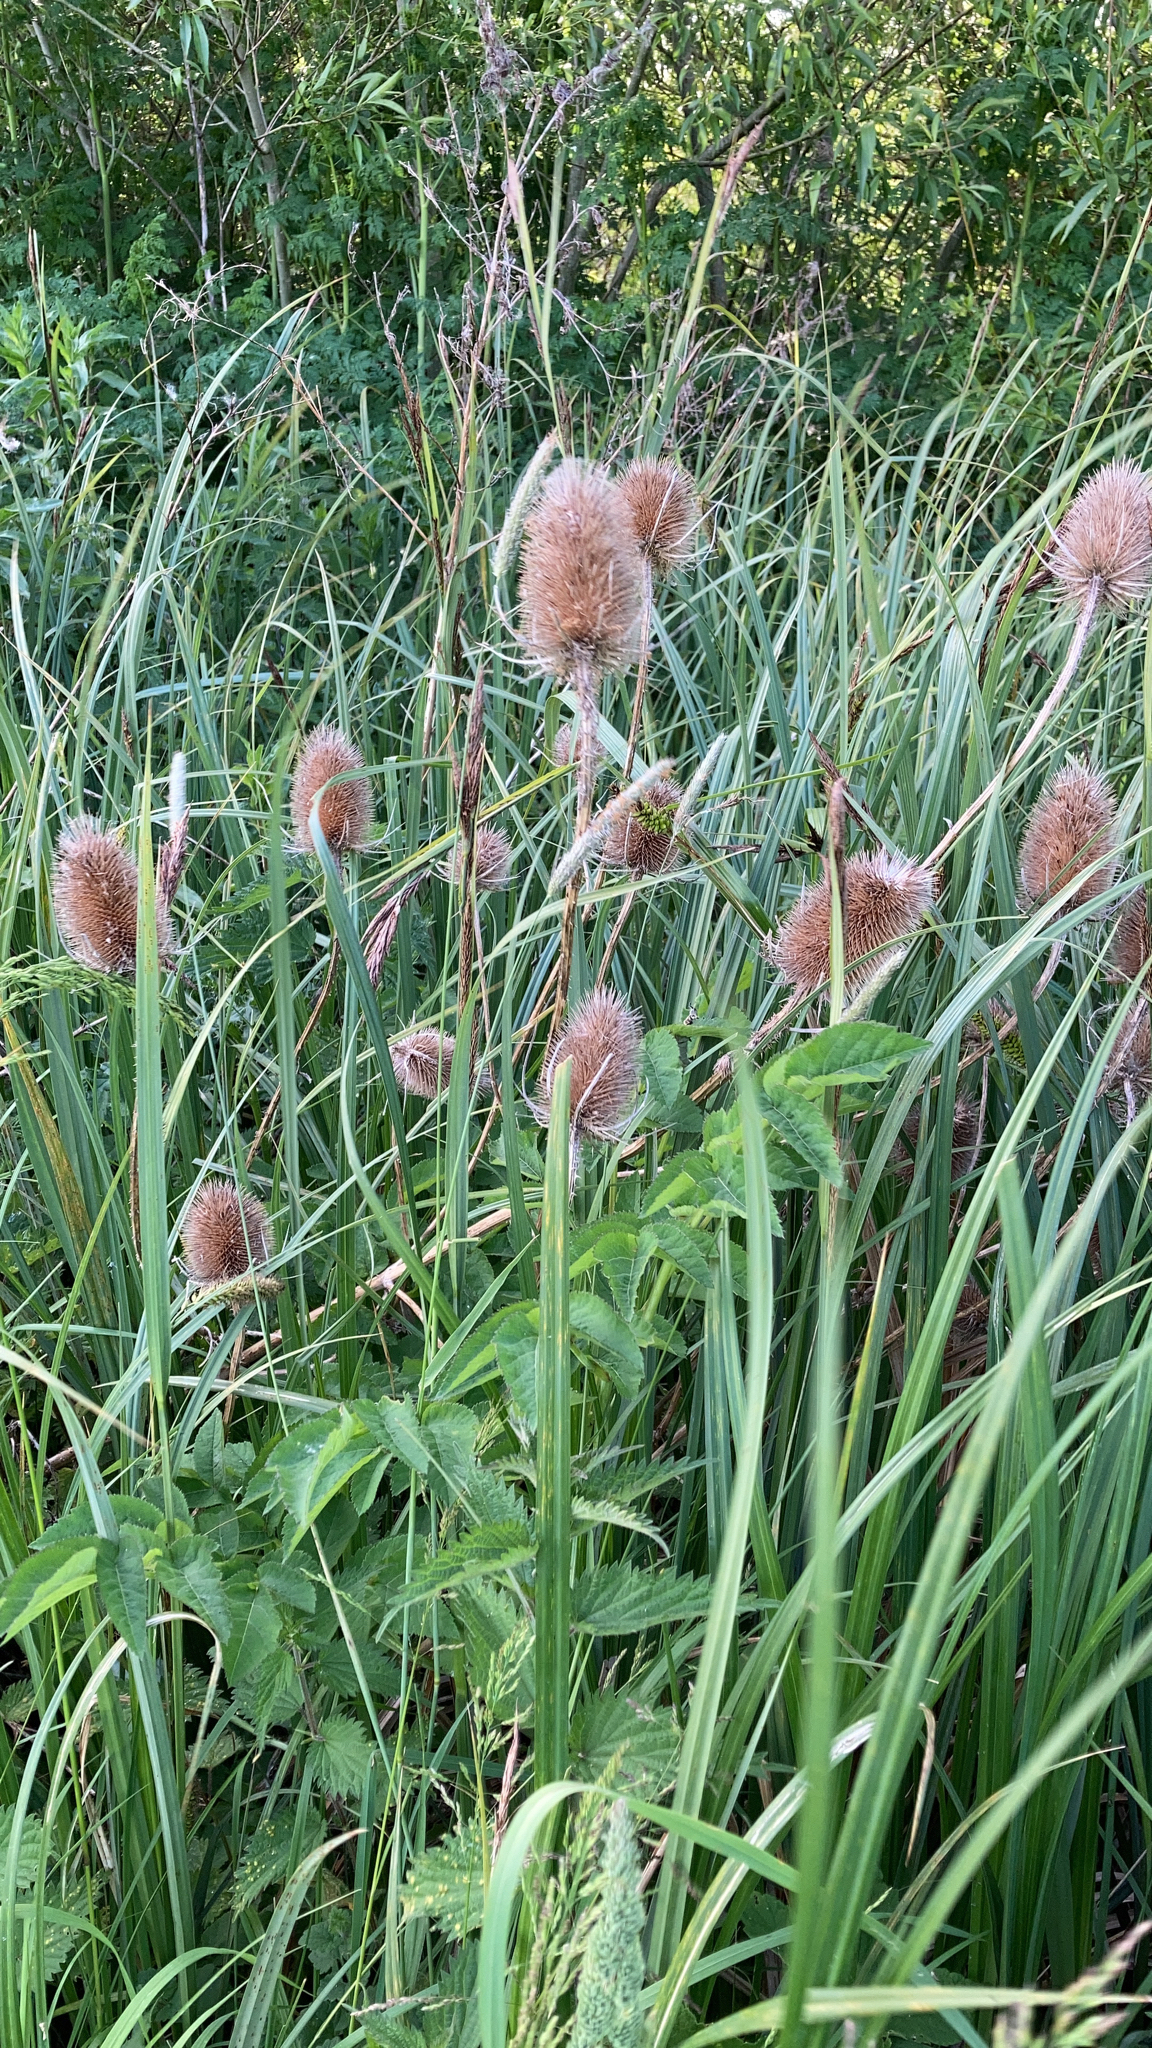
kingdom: Plantae
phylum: Tracheophyta
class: Magnoliopsida
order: Dipsacales
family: Caprifoliaceae
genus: Dipsacus
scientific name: Dipsacus fullonum
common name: Teasel
